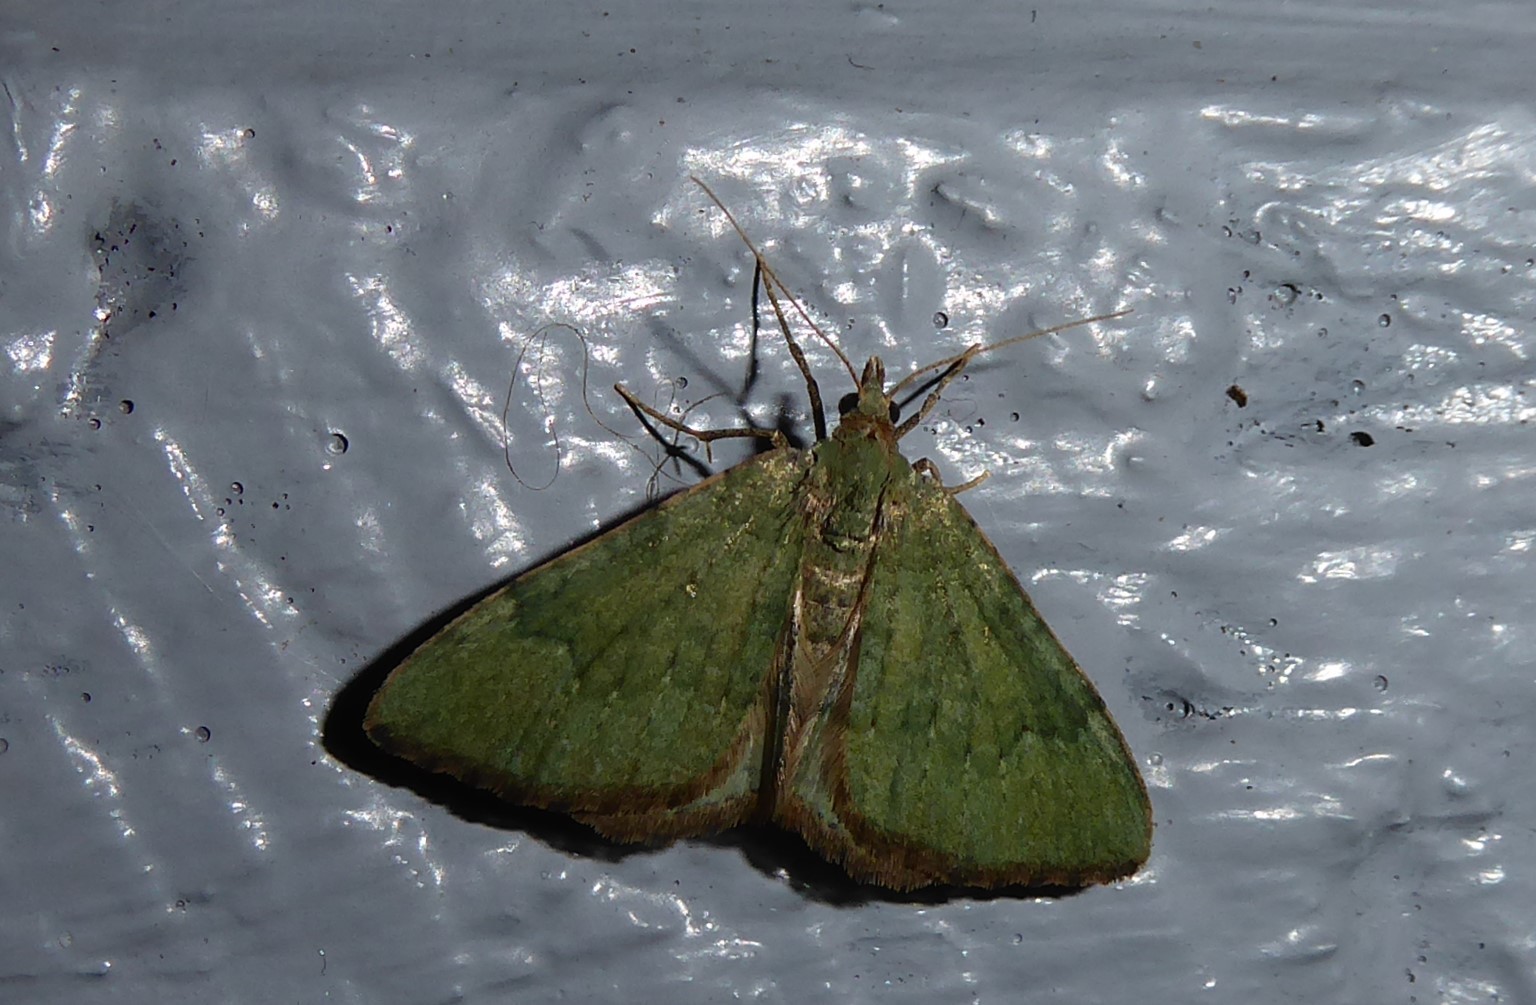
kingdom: Animalia
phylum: Arthropoda
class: Insecta
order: Lepidoptera
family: Geometridae
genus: Epyaxa
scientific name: Epyaxa rosearia
